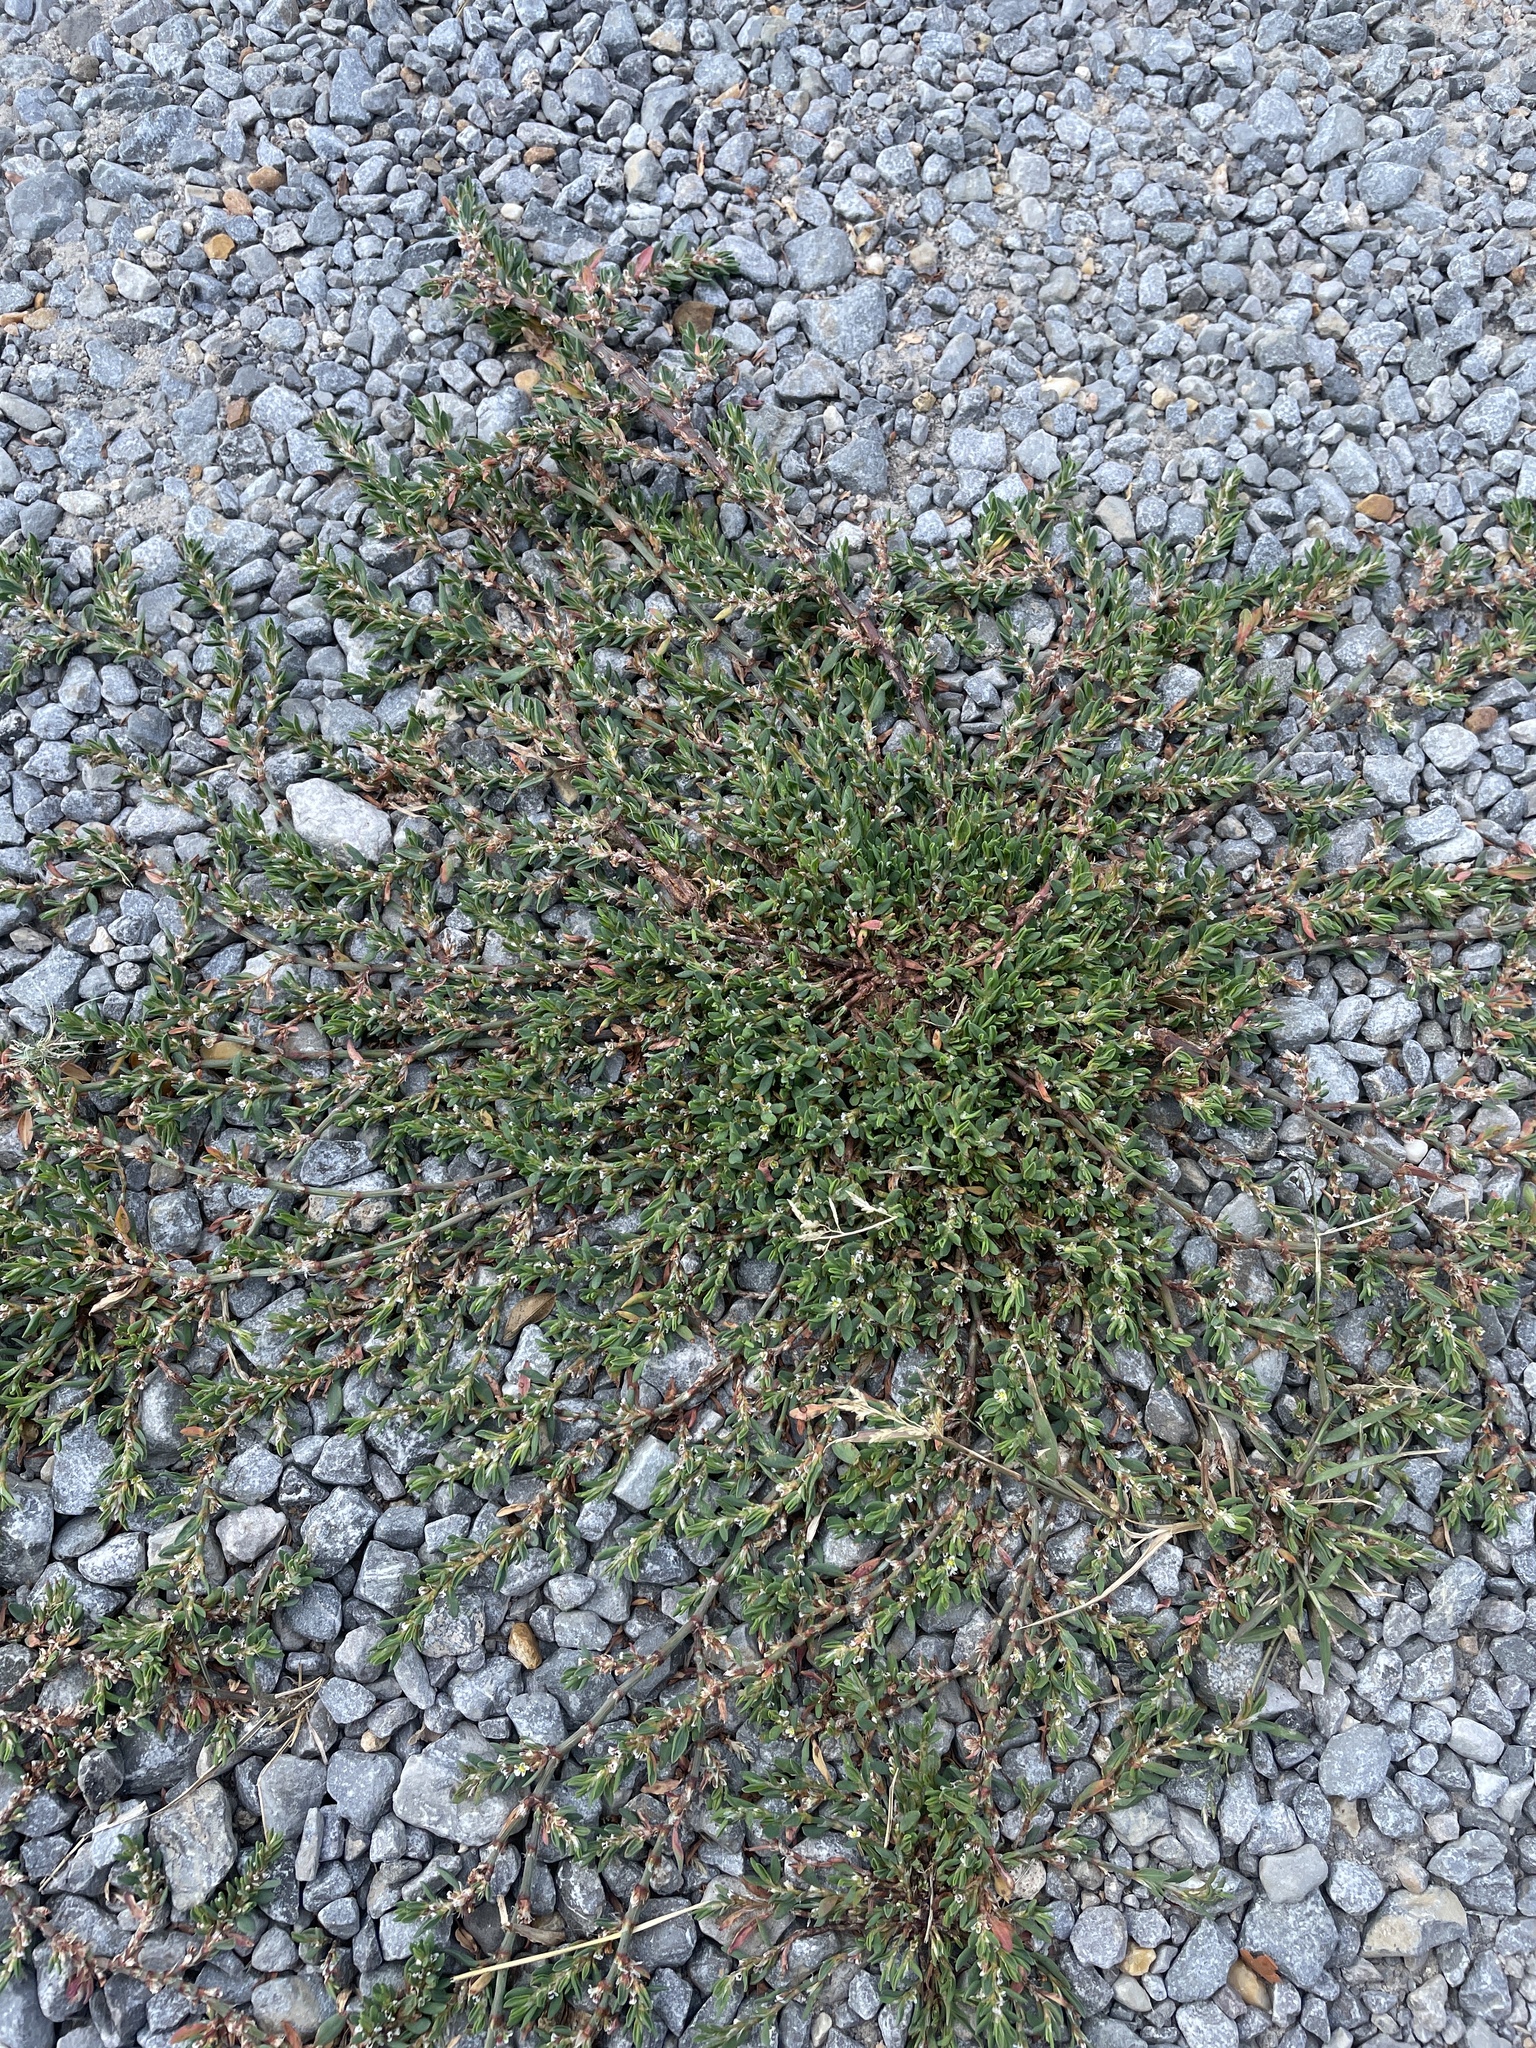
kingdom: Plantae
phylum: Tracheophyta
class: Magnoliopsida
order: Caryophyllales
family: Polygonaceae
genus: Polygonum
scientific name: Polygonum aviculare
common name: Prostrate knotweed
